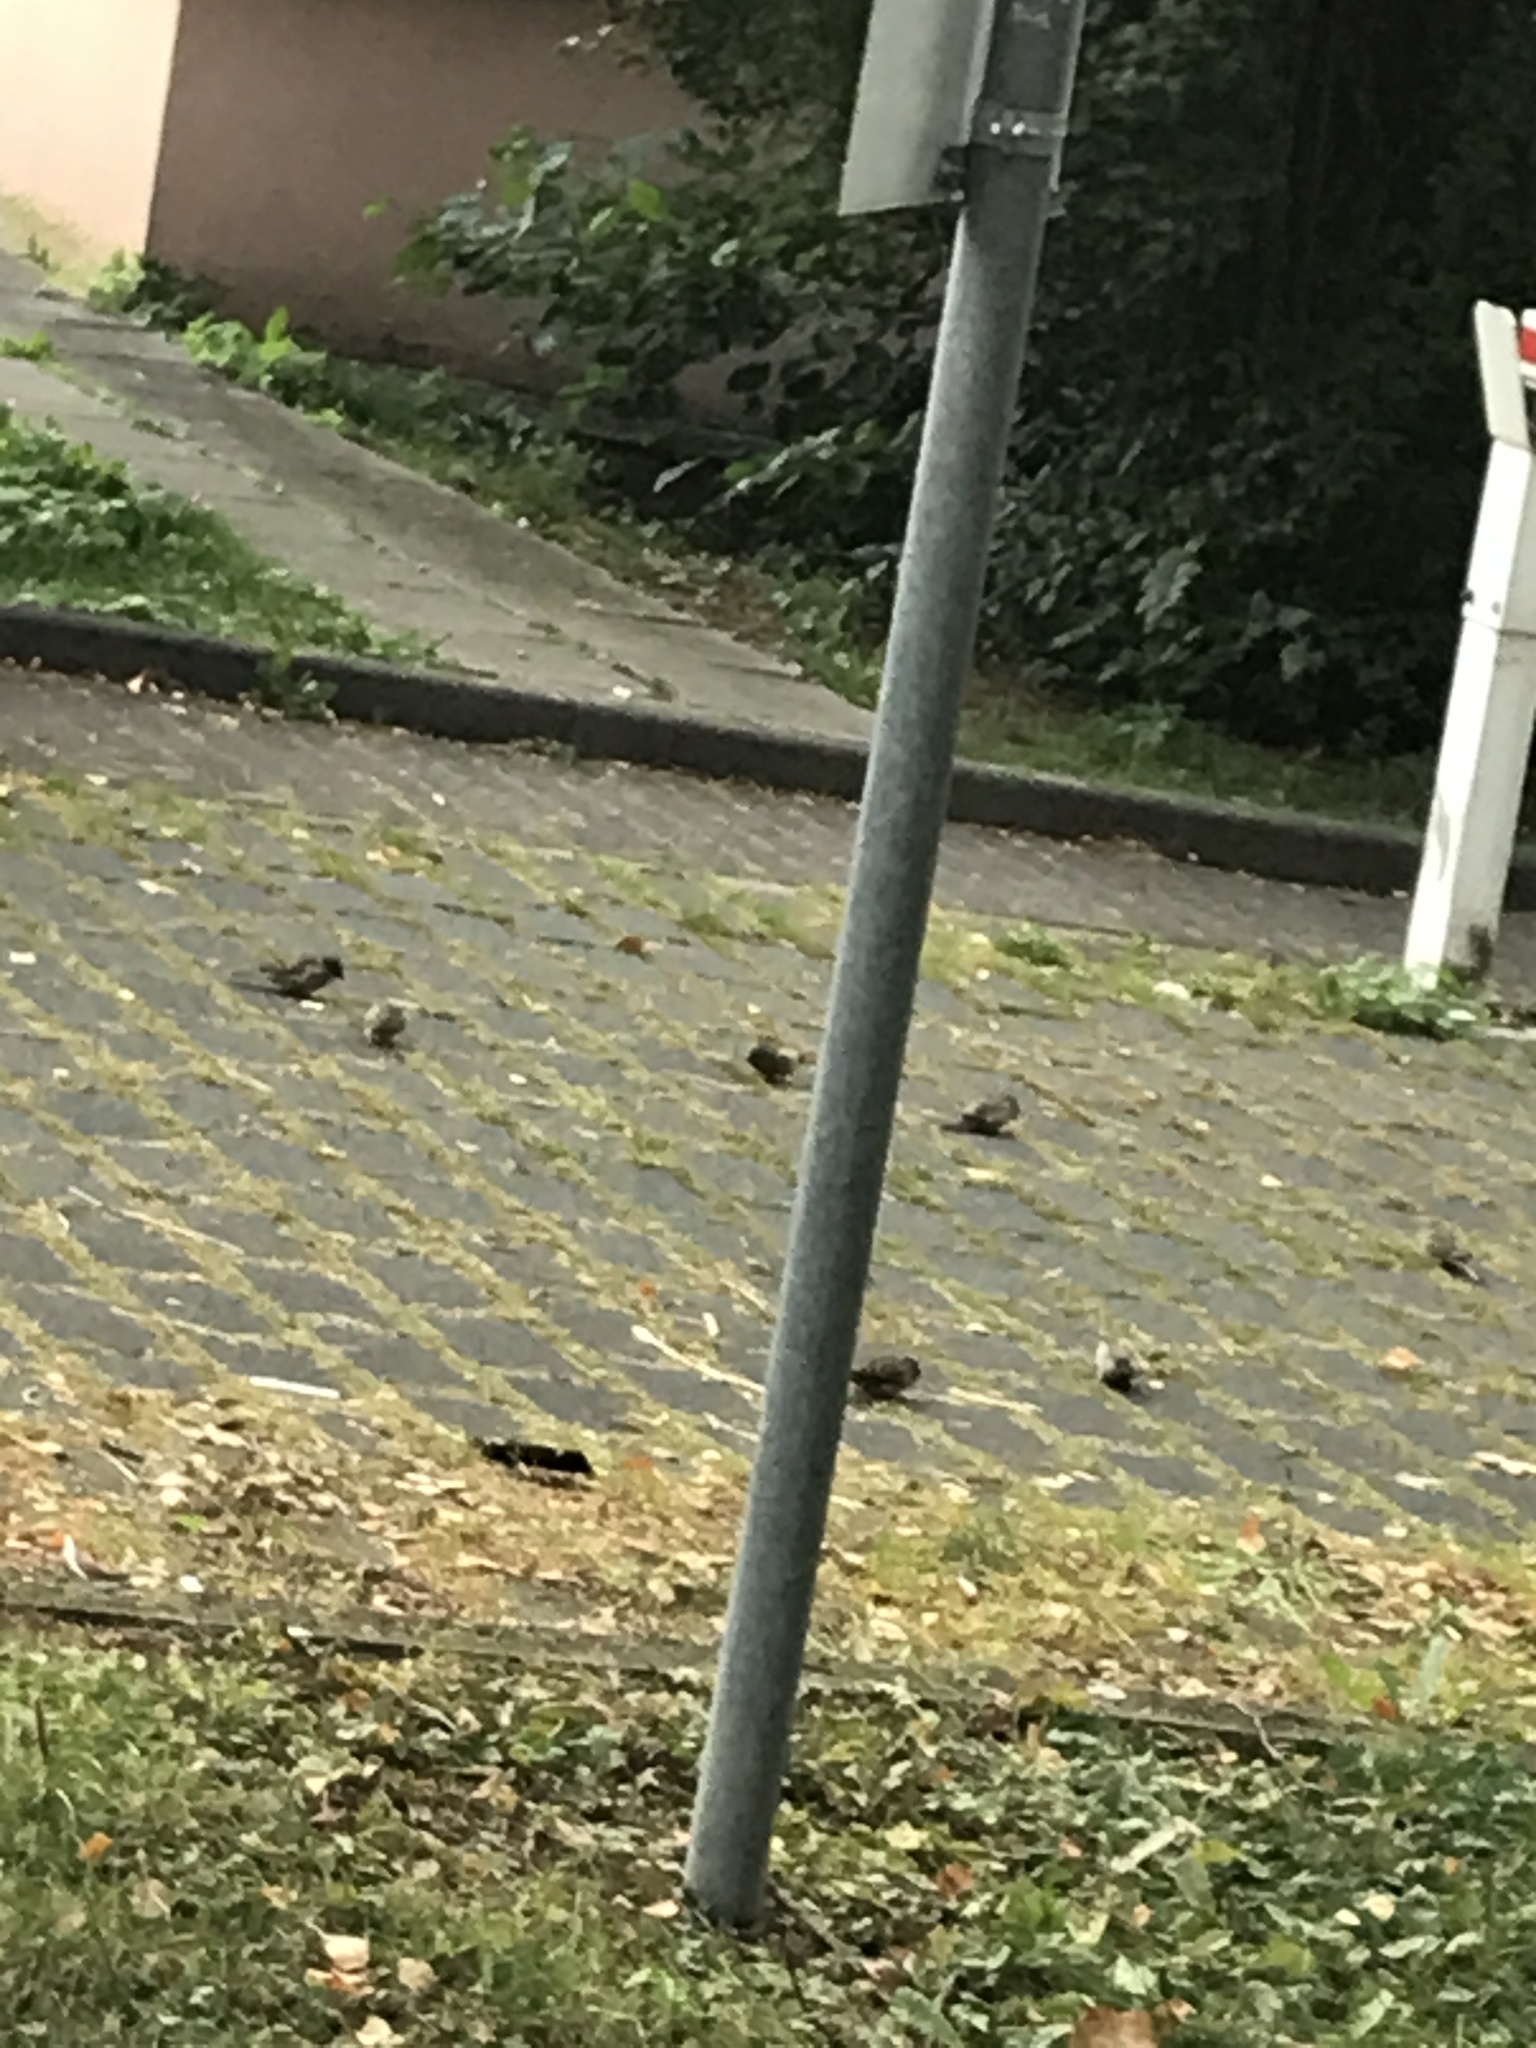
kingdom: Animalia
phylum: Chordata
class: Aves
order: Passeriformes
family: Passeridae
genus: Passer
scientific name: Passer domesticus
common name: House sparrow
